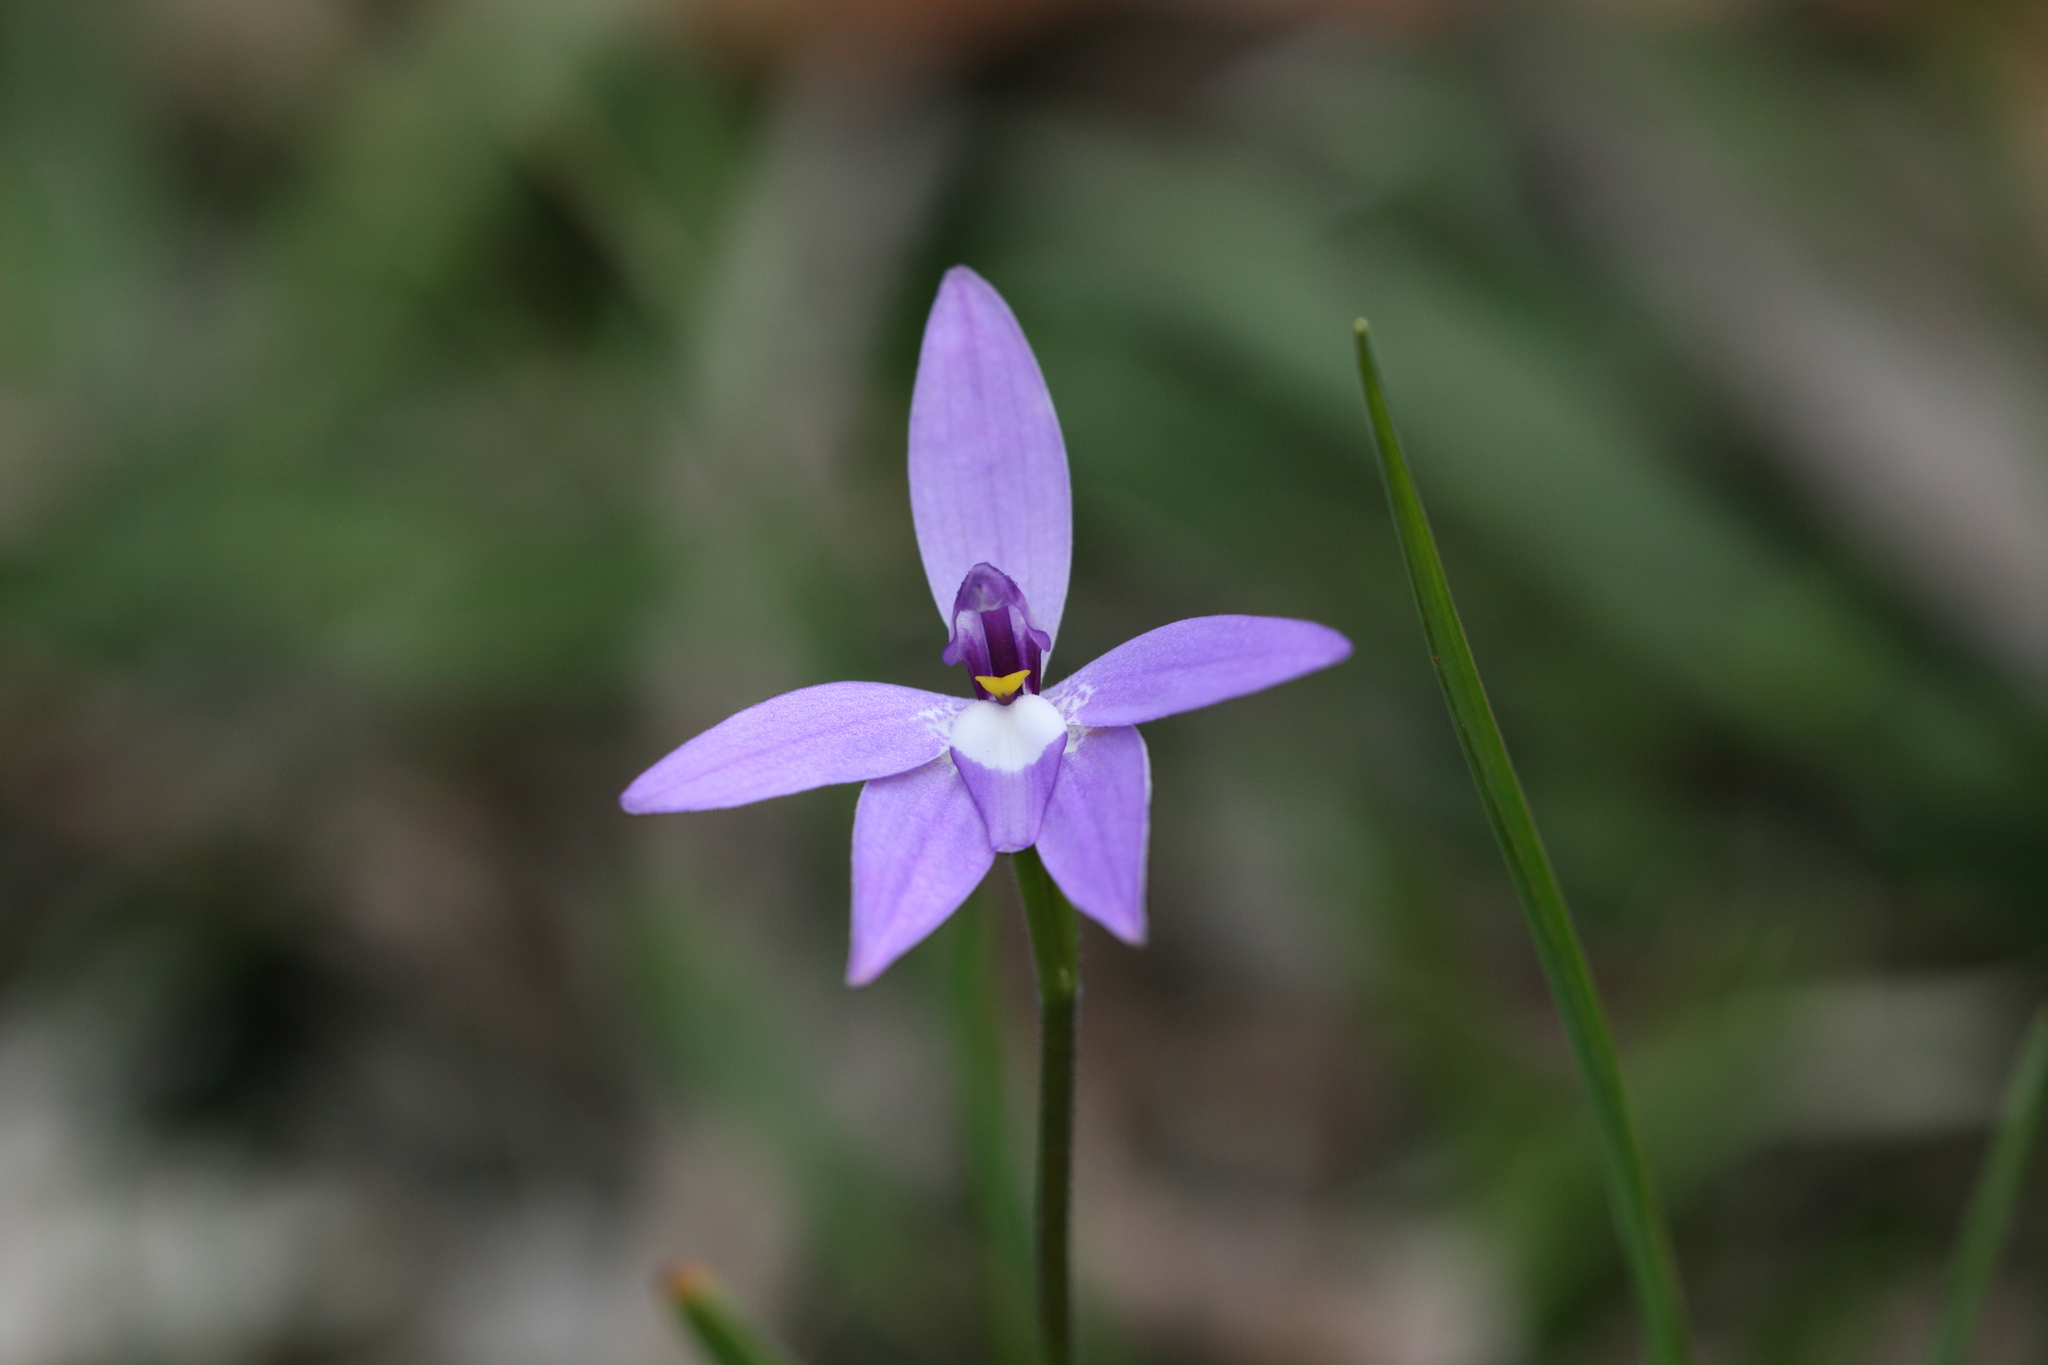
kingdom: Plantae
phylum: Tracheophyta
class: Liliopsida
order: Asparagales
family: Orchidaceae
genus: Caladenia
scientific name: Caladenia major
